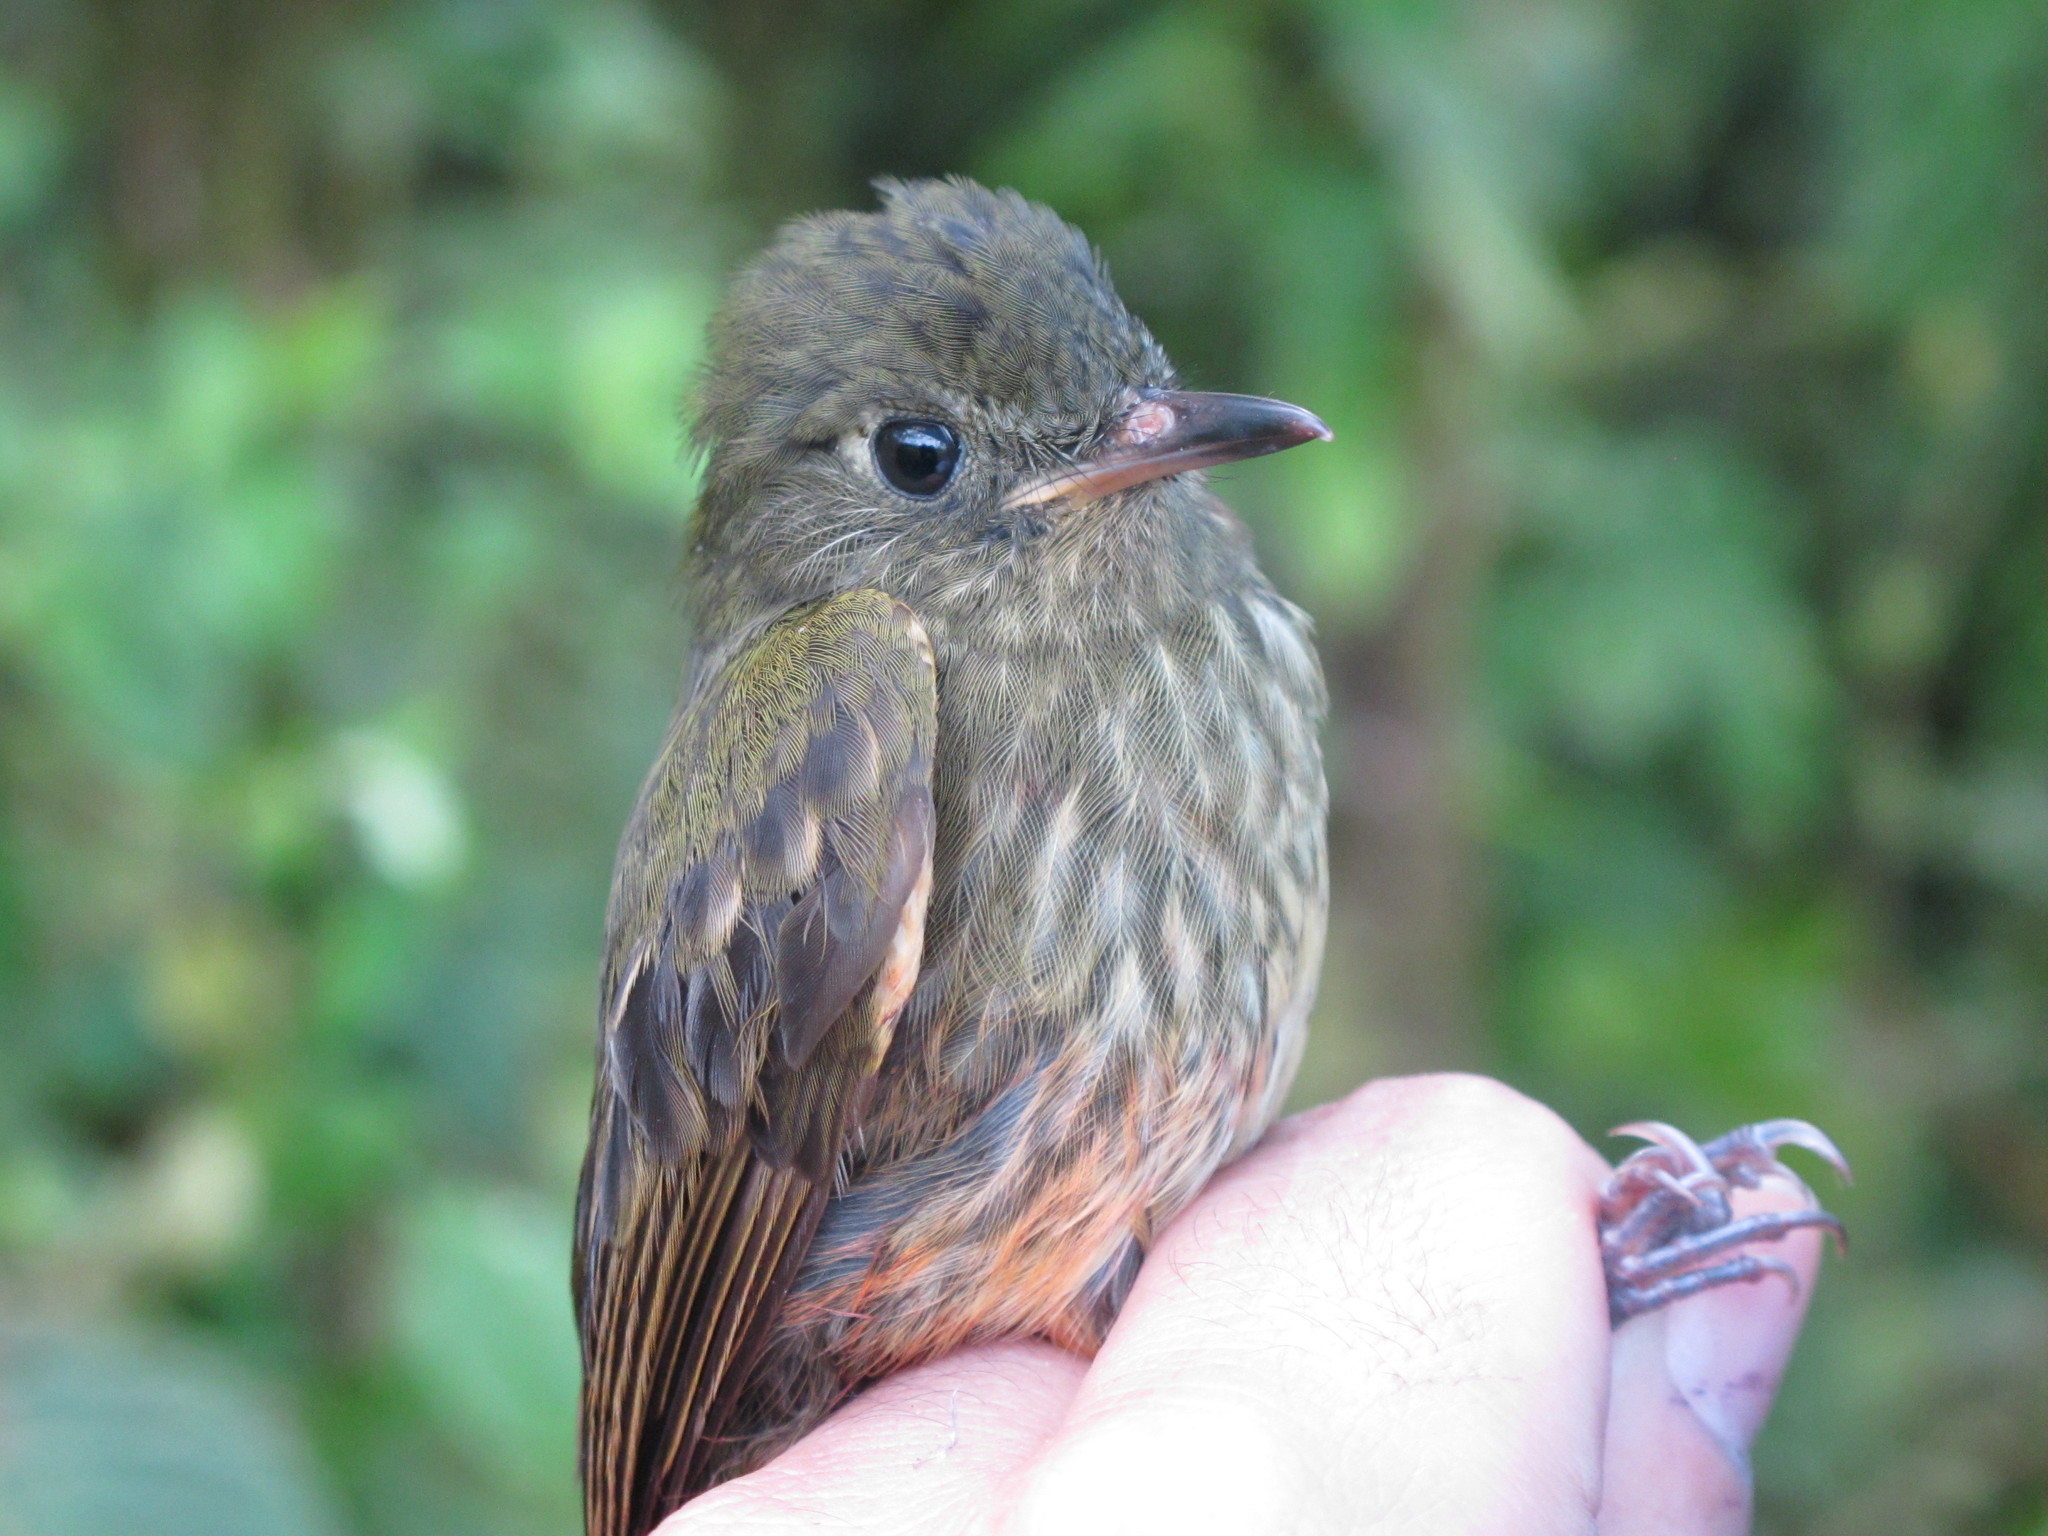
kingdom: Animalia
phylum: Chordata
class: Aves
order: Passeriformes
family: Tyrannidae
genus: Mionectes
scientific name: Mionectes galbinus
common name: Olive-striped flycatcher
